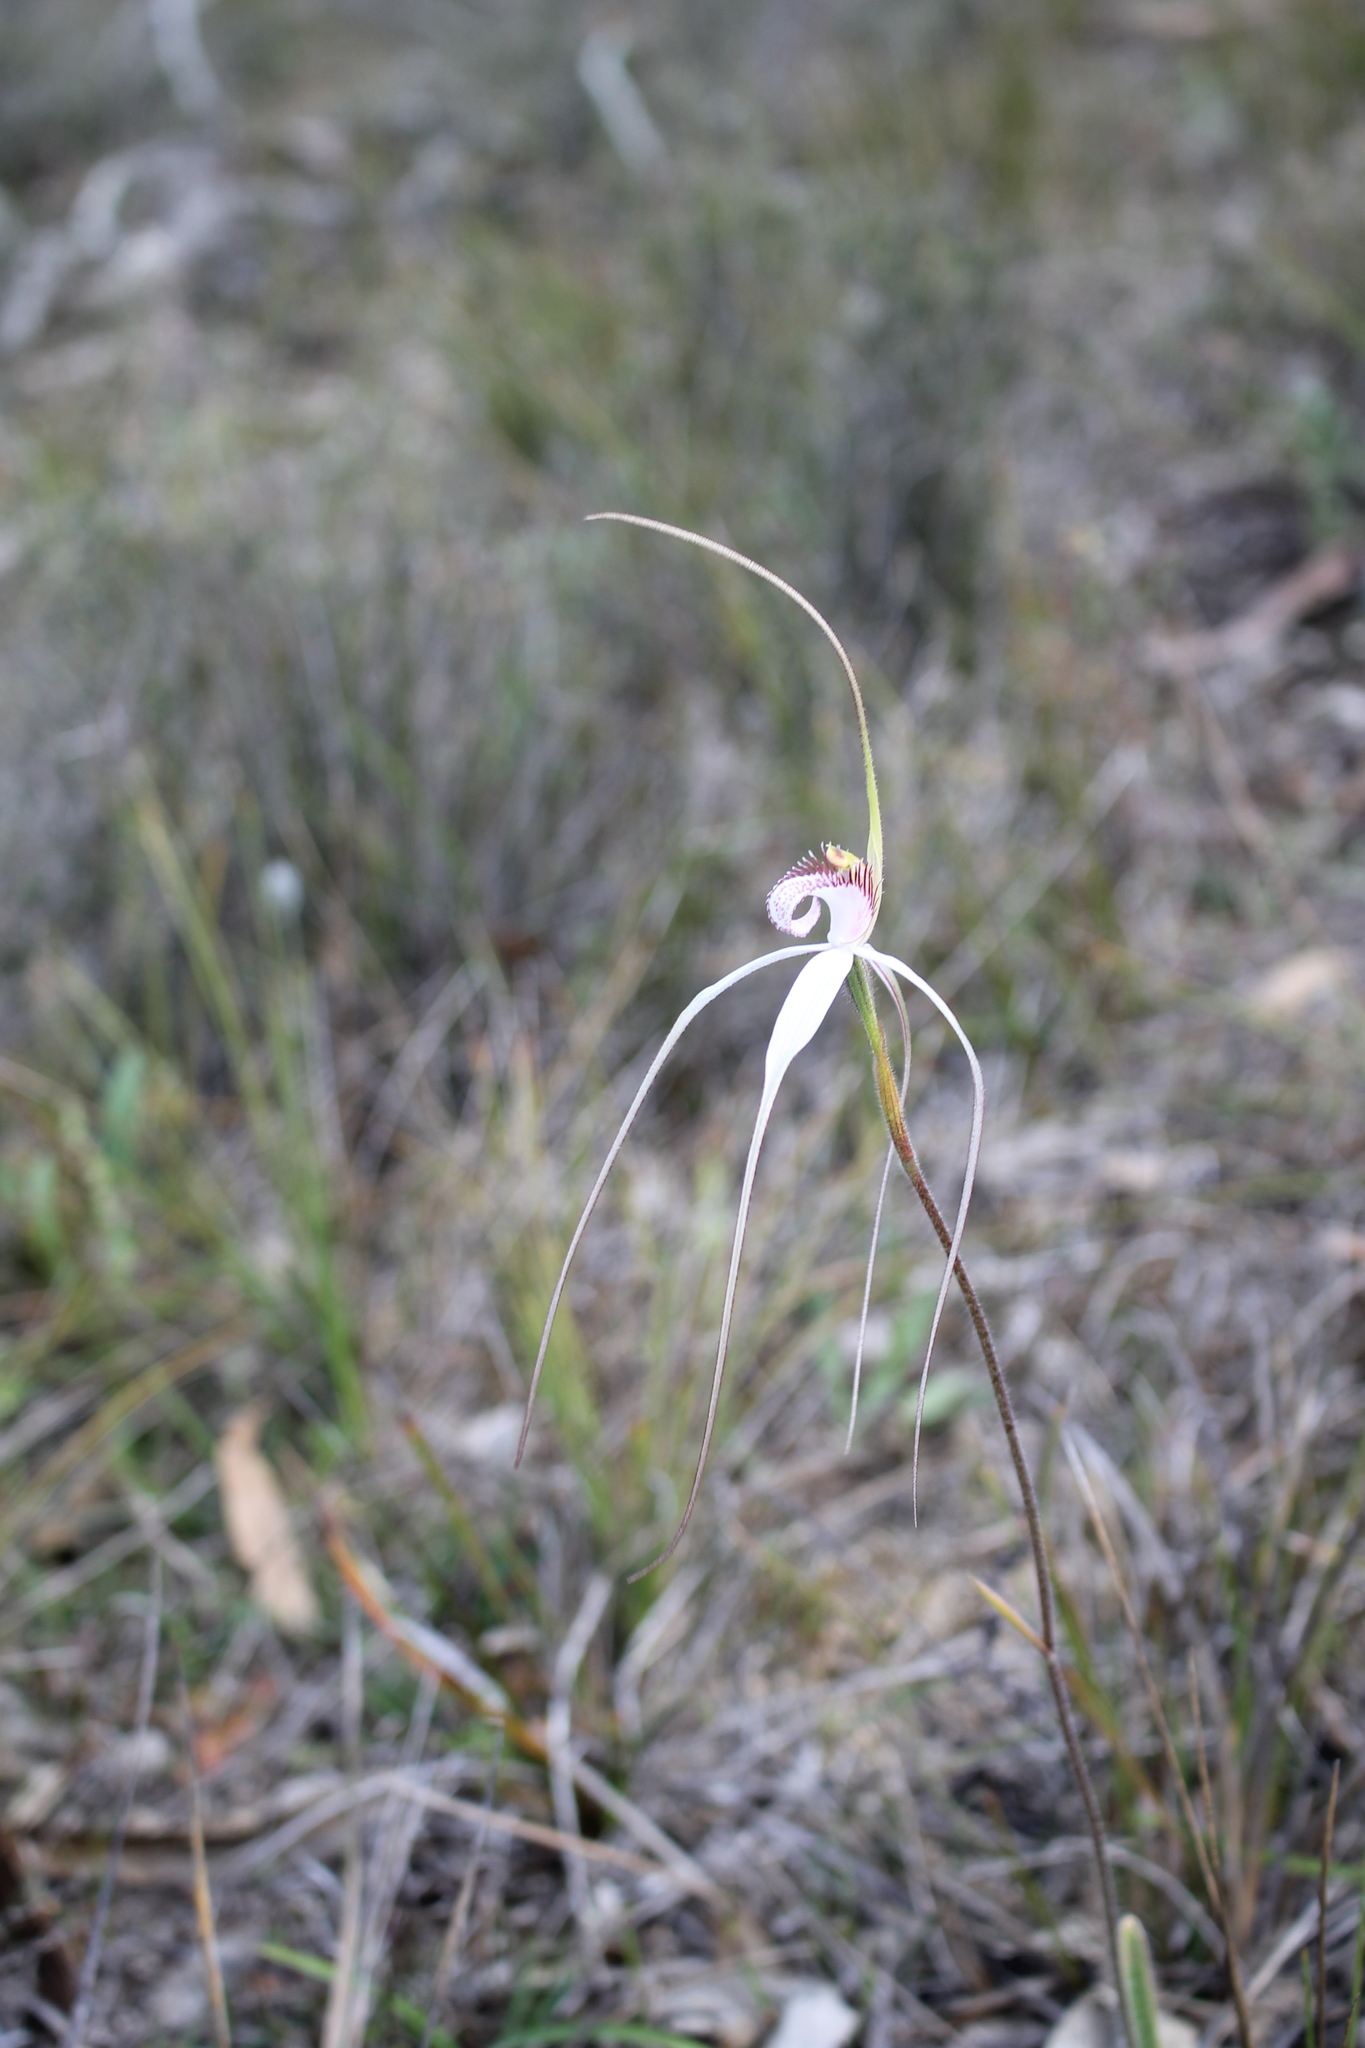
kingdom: Plantae
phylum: Tracheophyta
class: Liliopsida
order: Asparagales
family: Orchidaceae
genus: Caladenia
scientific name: Caladenia longicauda
